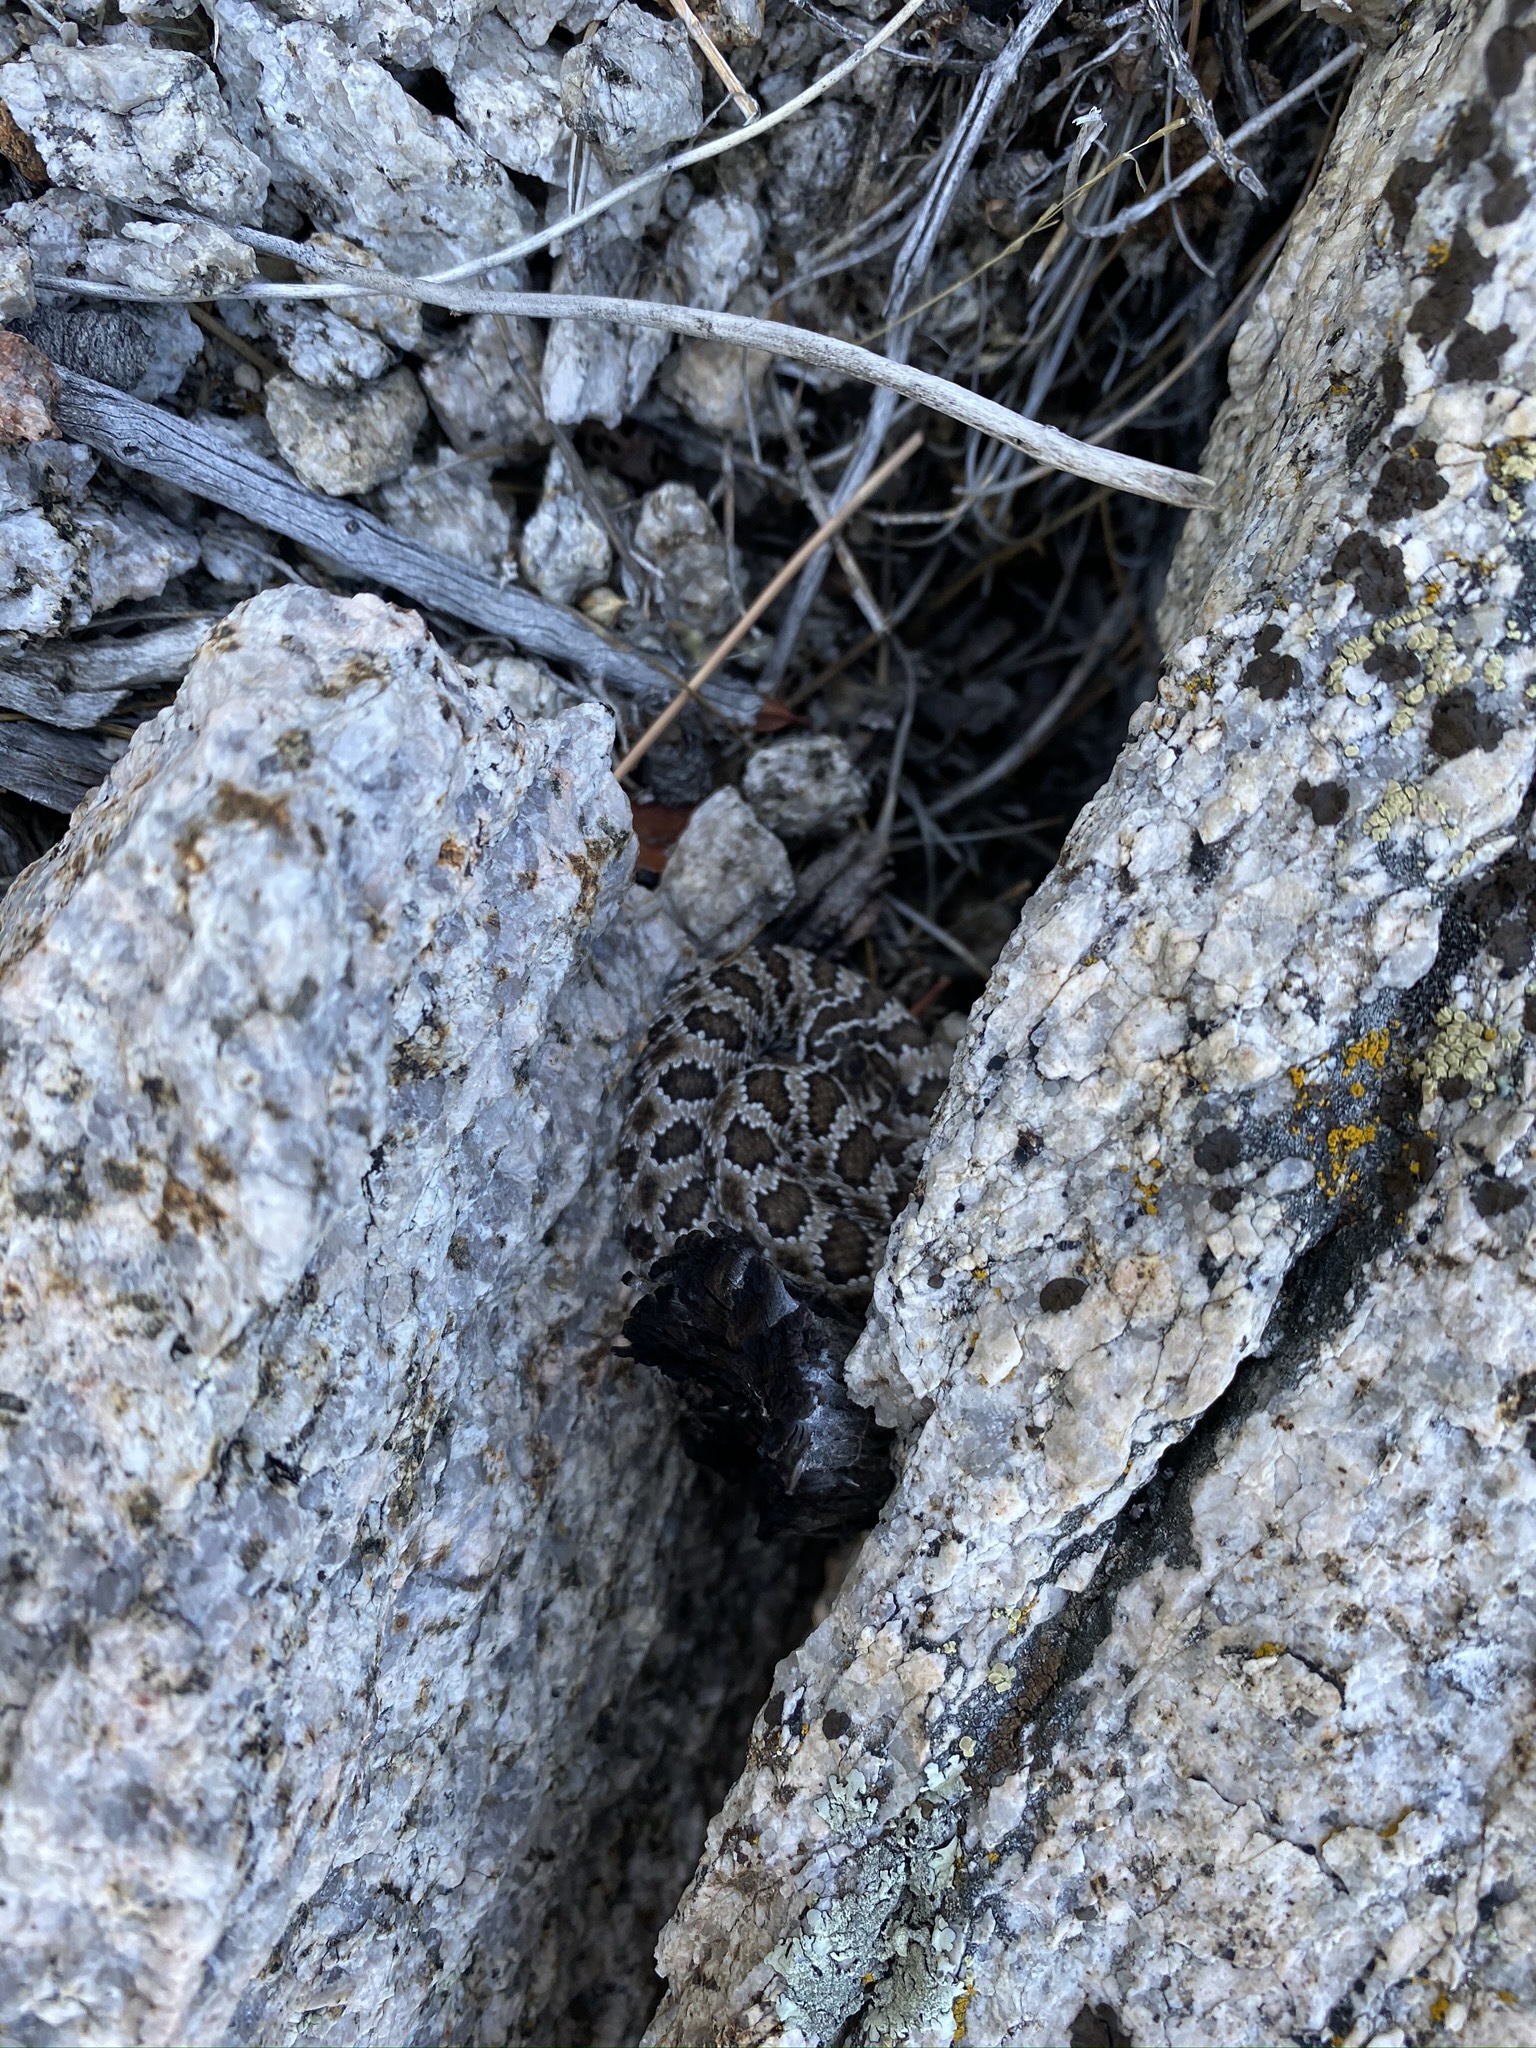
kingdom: Animalia
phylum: Chordata
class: Squamata
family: Viperidae
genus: Crotalus
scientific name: Crotalus oreganus
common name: Abyssus
